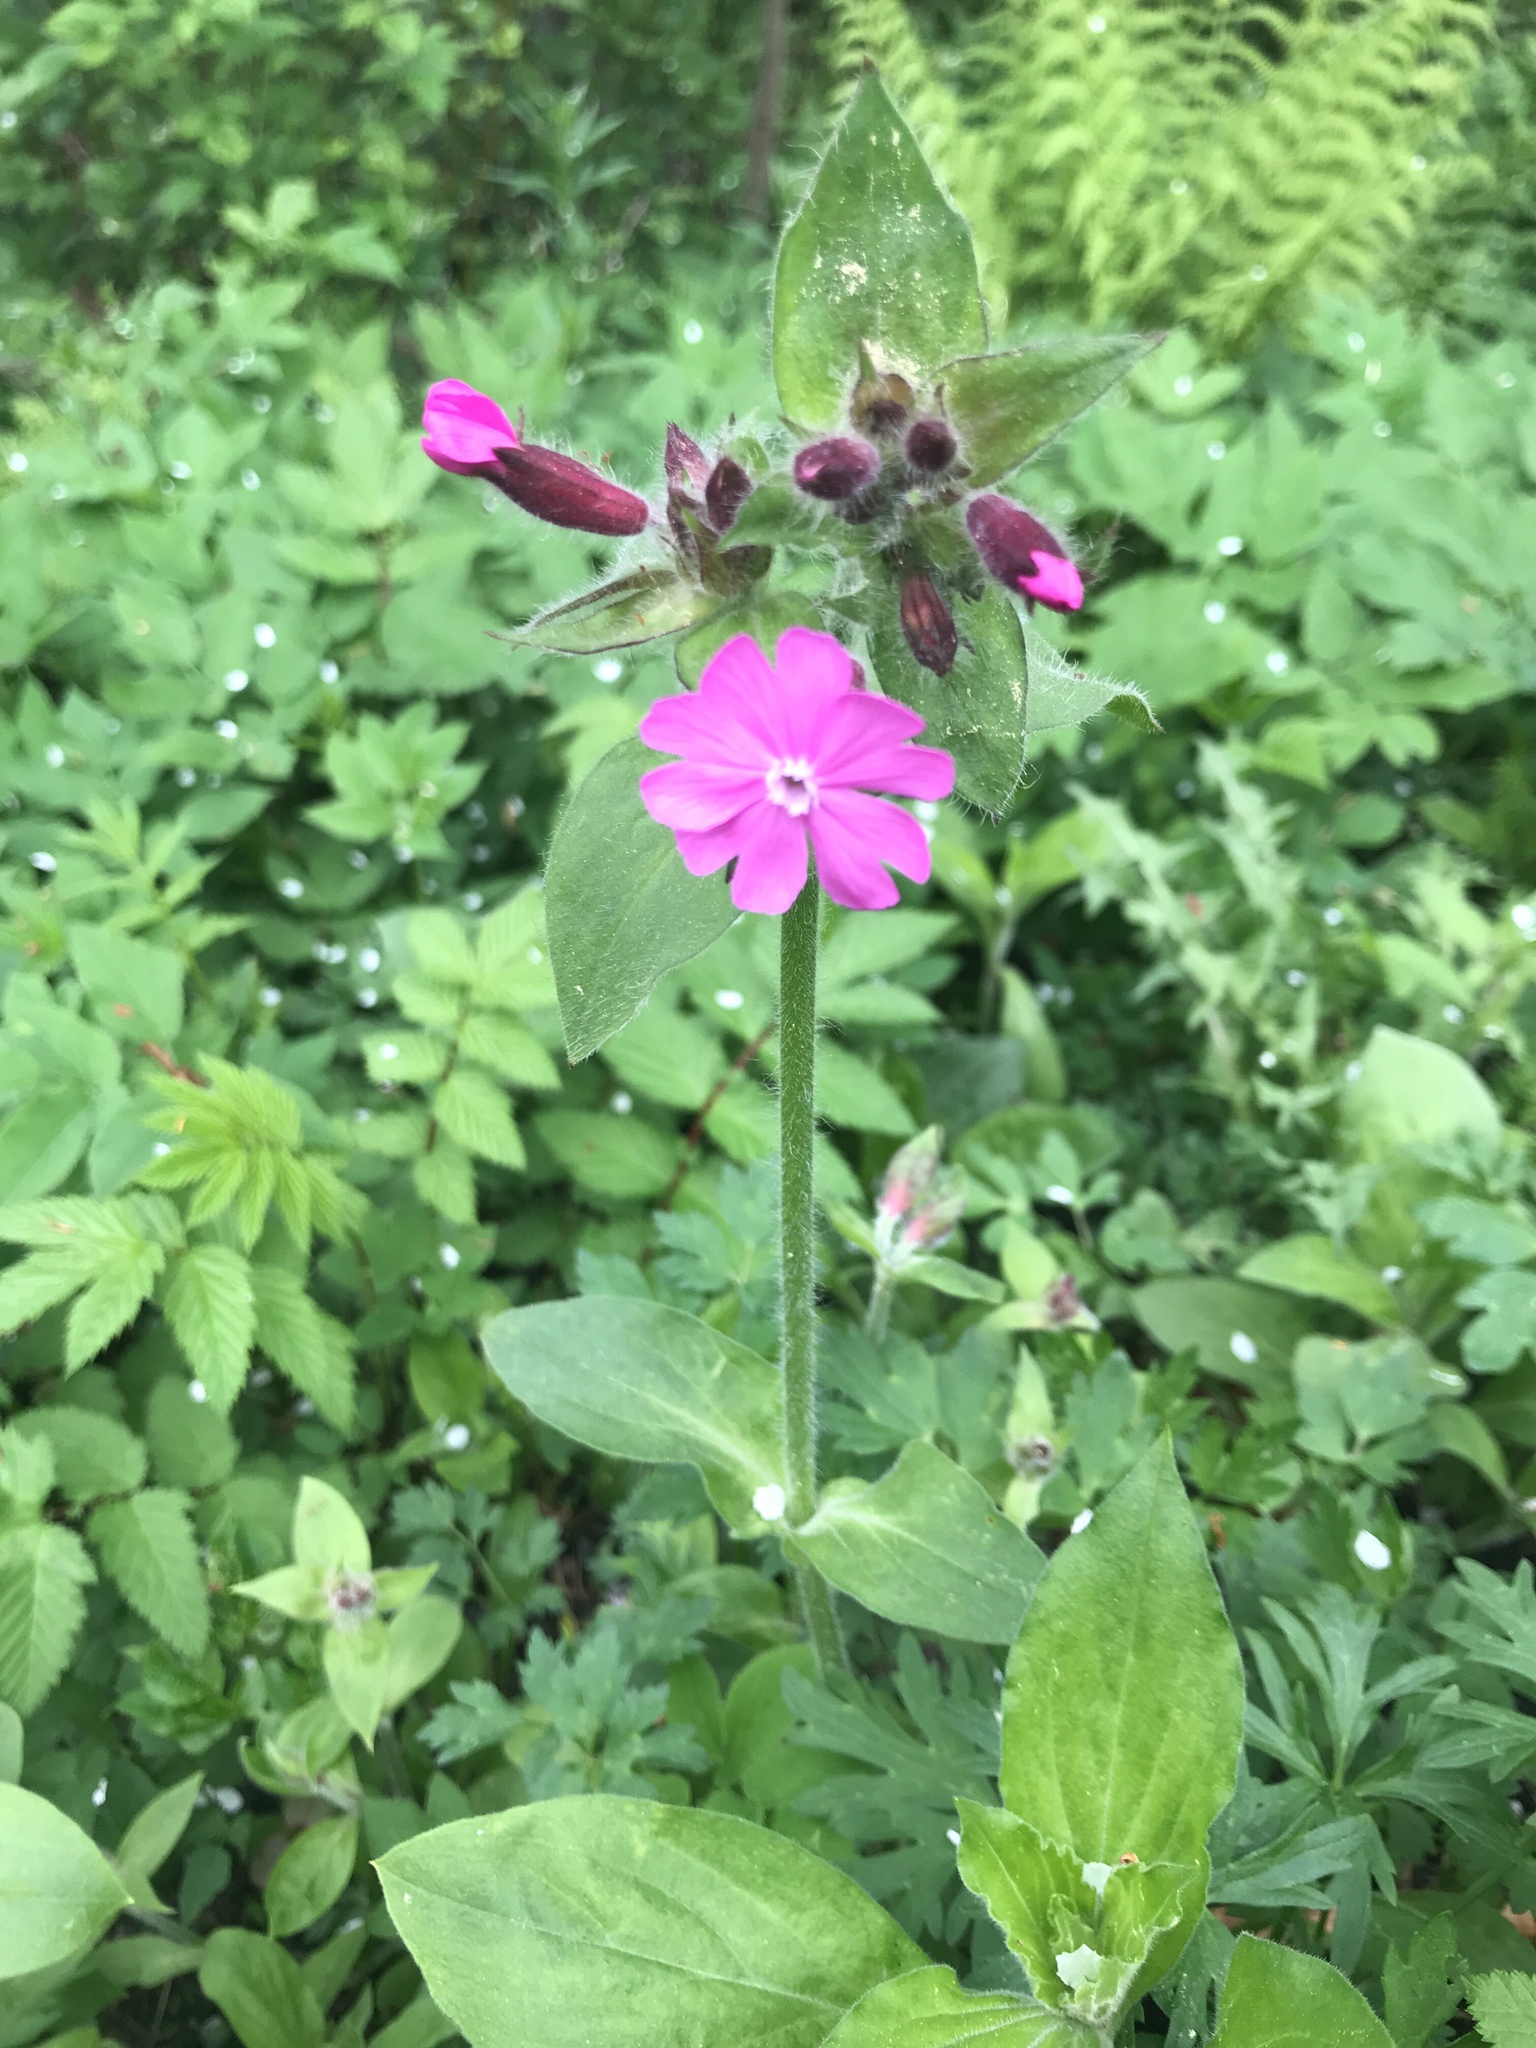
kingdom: Plantae
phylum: Tracheophyta
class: Magnoliopsida
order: Caryophyllales
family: Caryophyllaceae
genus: Silene
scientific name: Silene dioica
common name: Red campion
